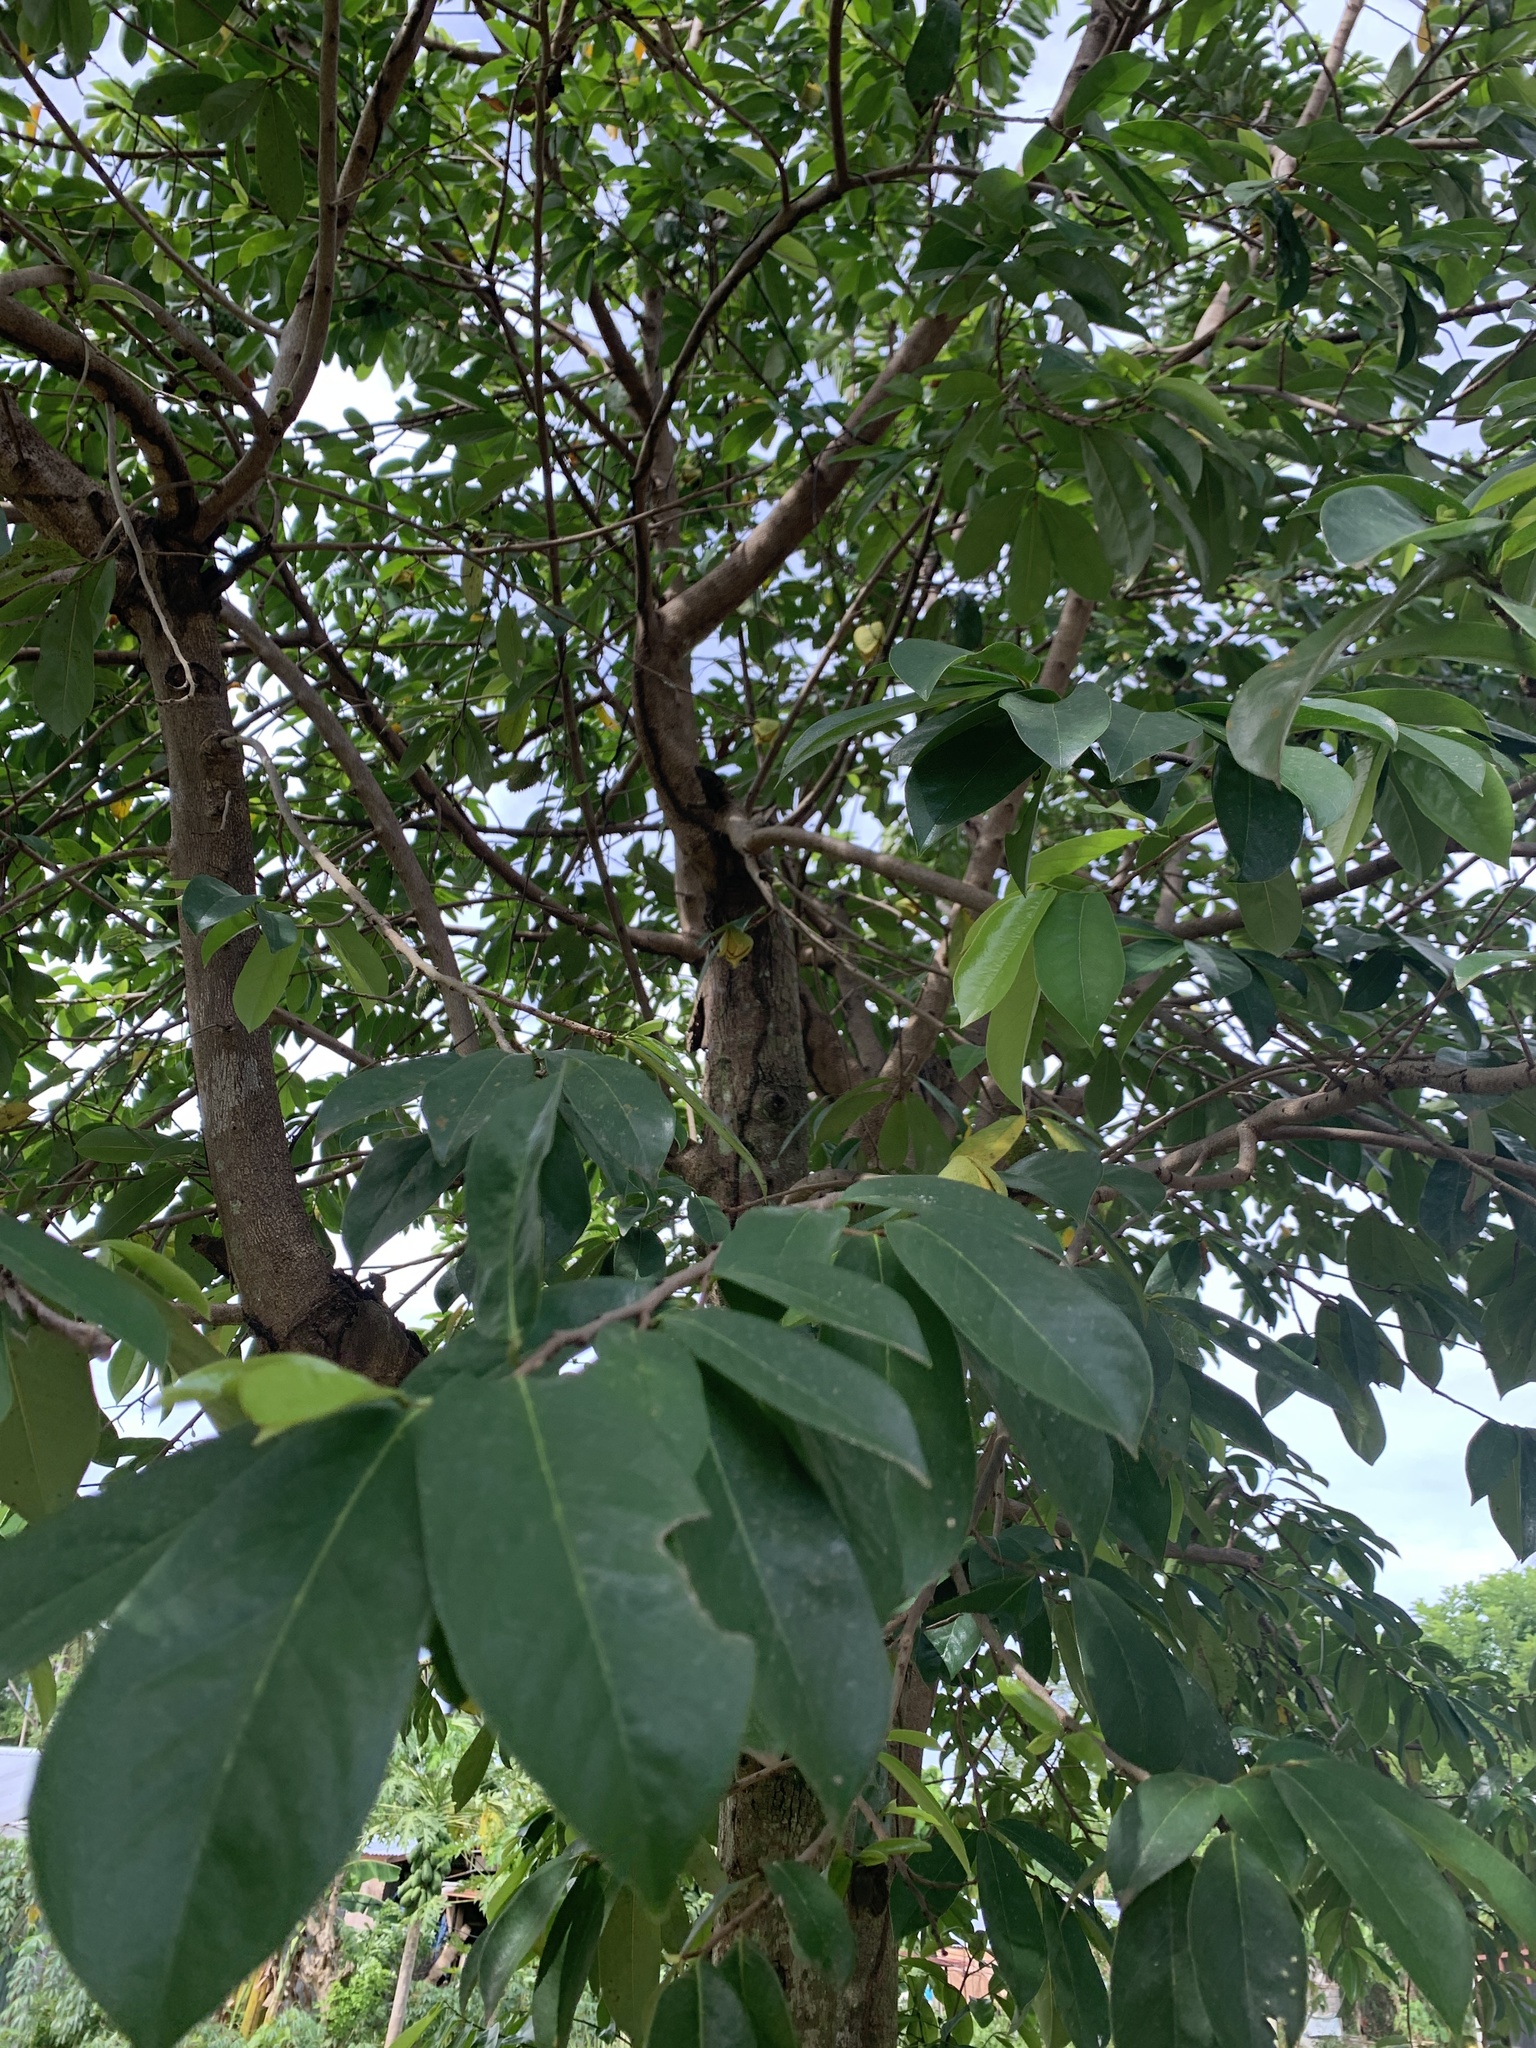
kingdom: Plantae
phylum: Tracheophyta
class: Magnoliopsida
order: Magnoliales
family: Annonaceae
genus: Annona
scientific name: Annona muricata
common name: Soursop
